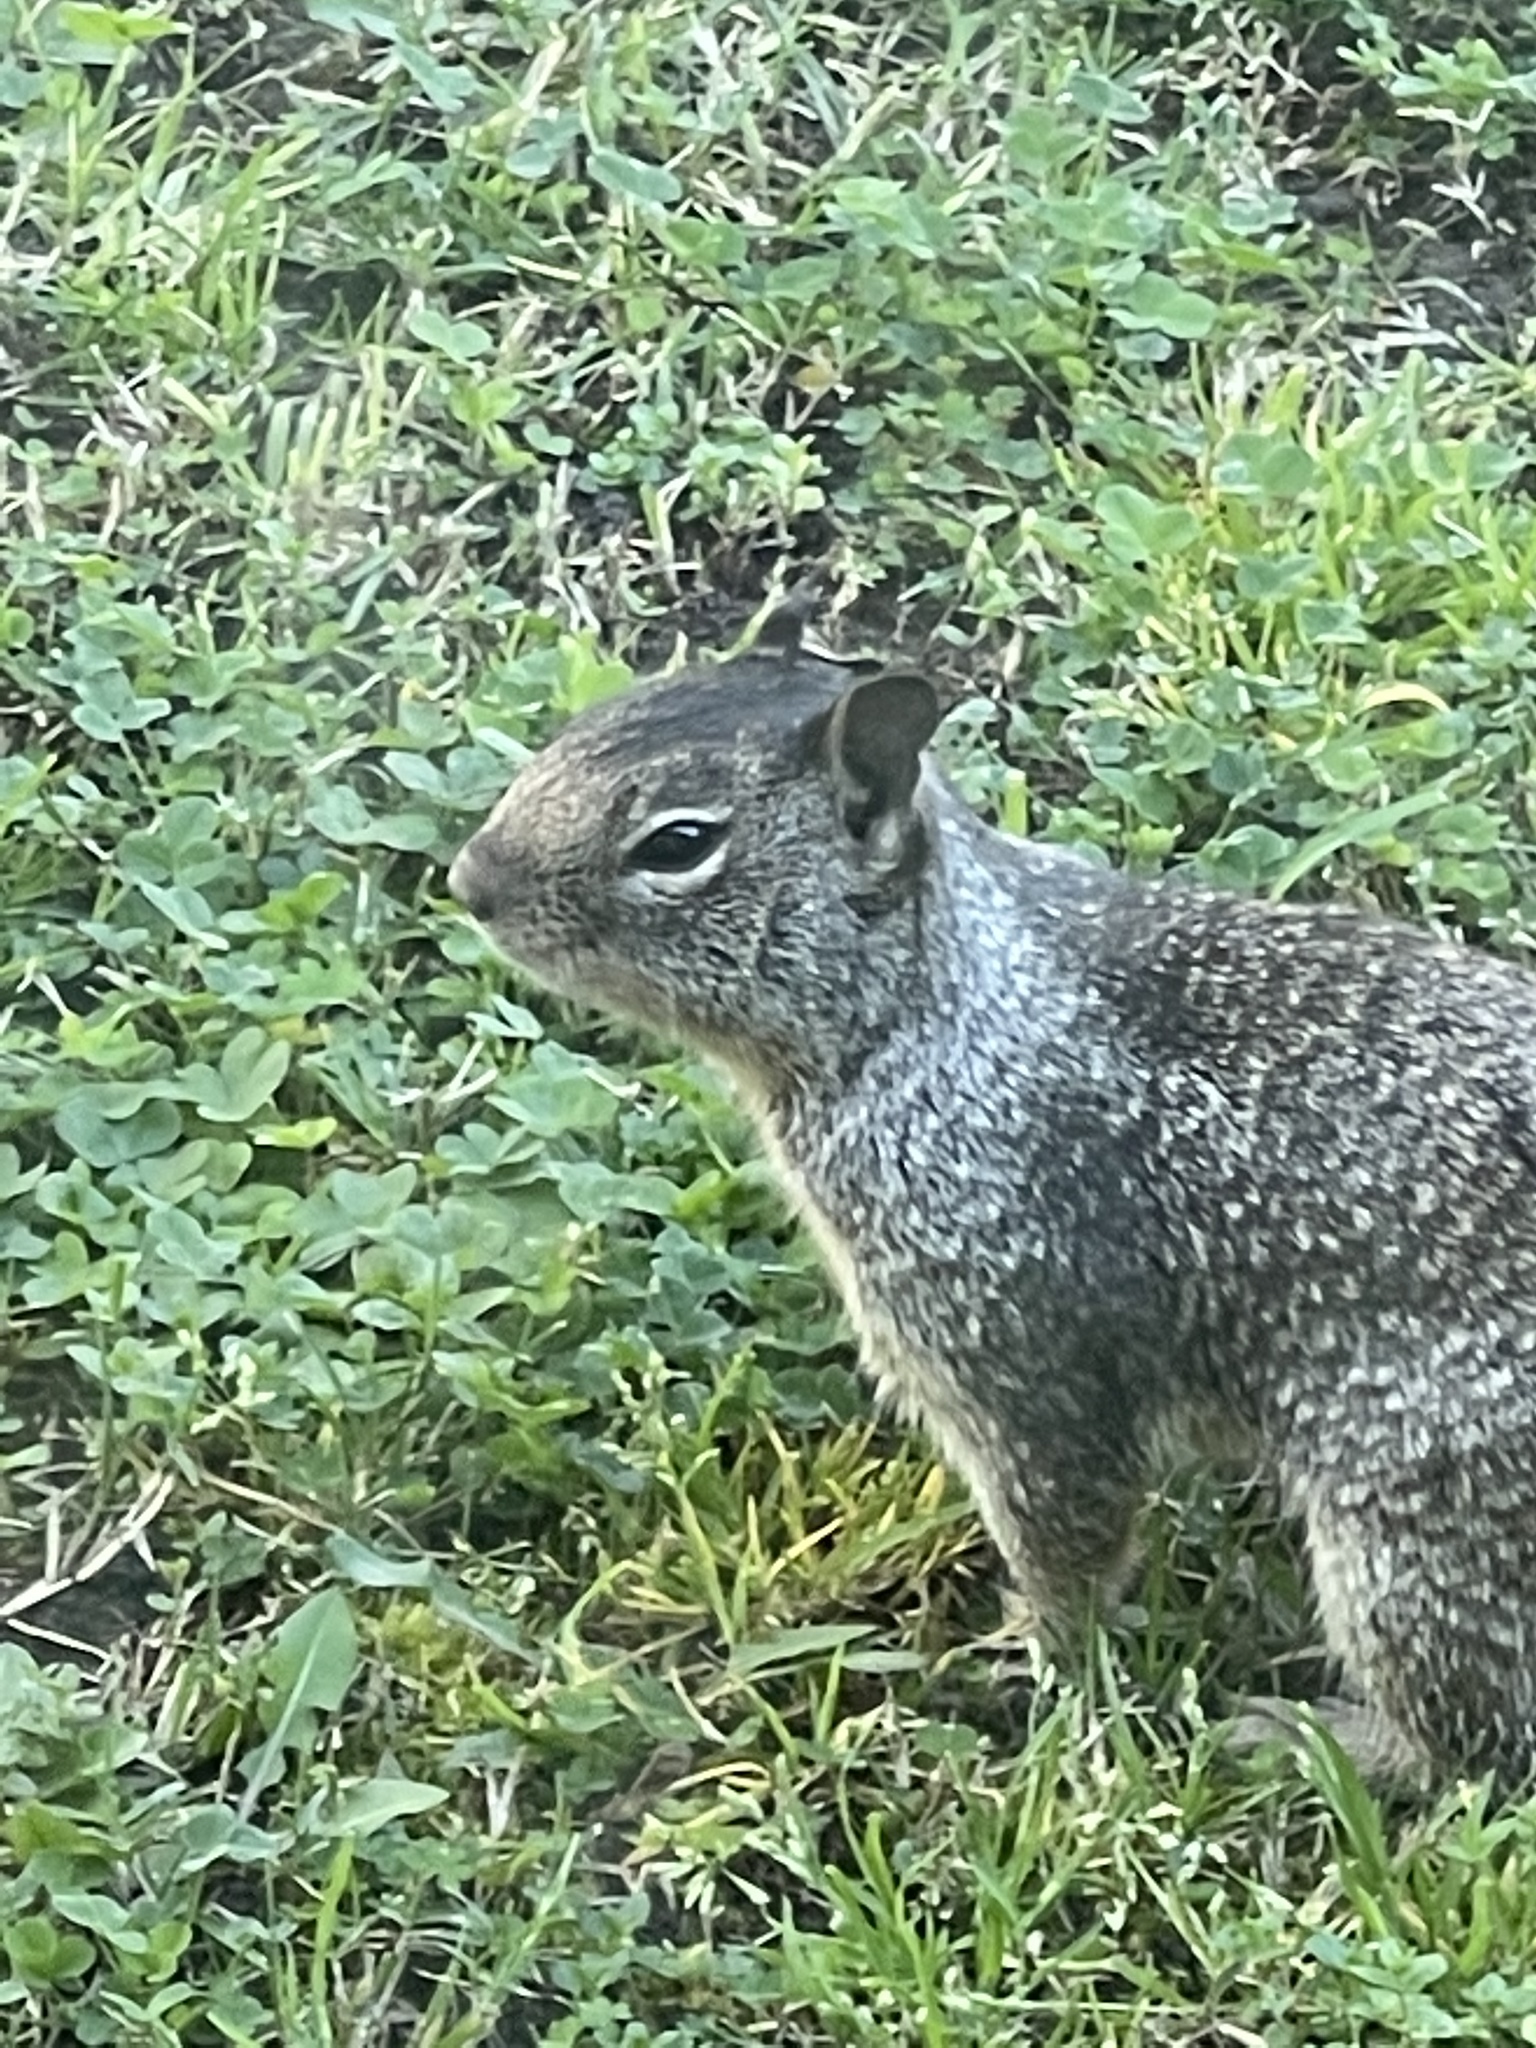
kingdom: Animalia
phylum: Chordata
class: Mammalia
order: Rodentia
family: Sciuridae
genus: Otospermophilus
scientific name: Otospermophilus beecheyi
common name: California ground squirrel
